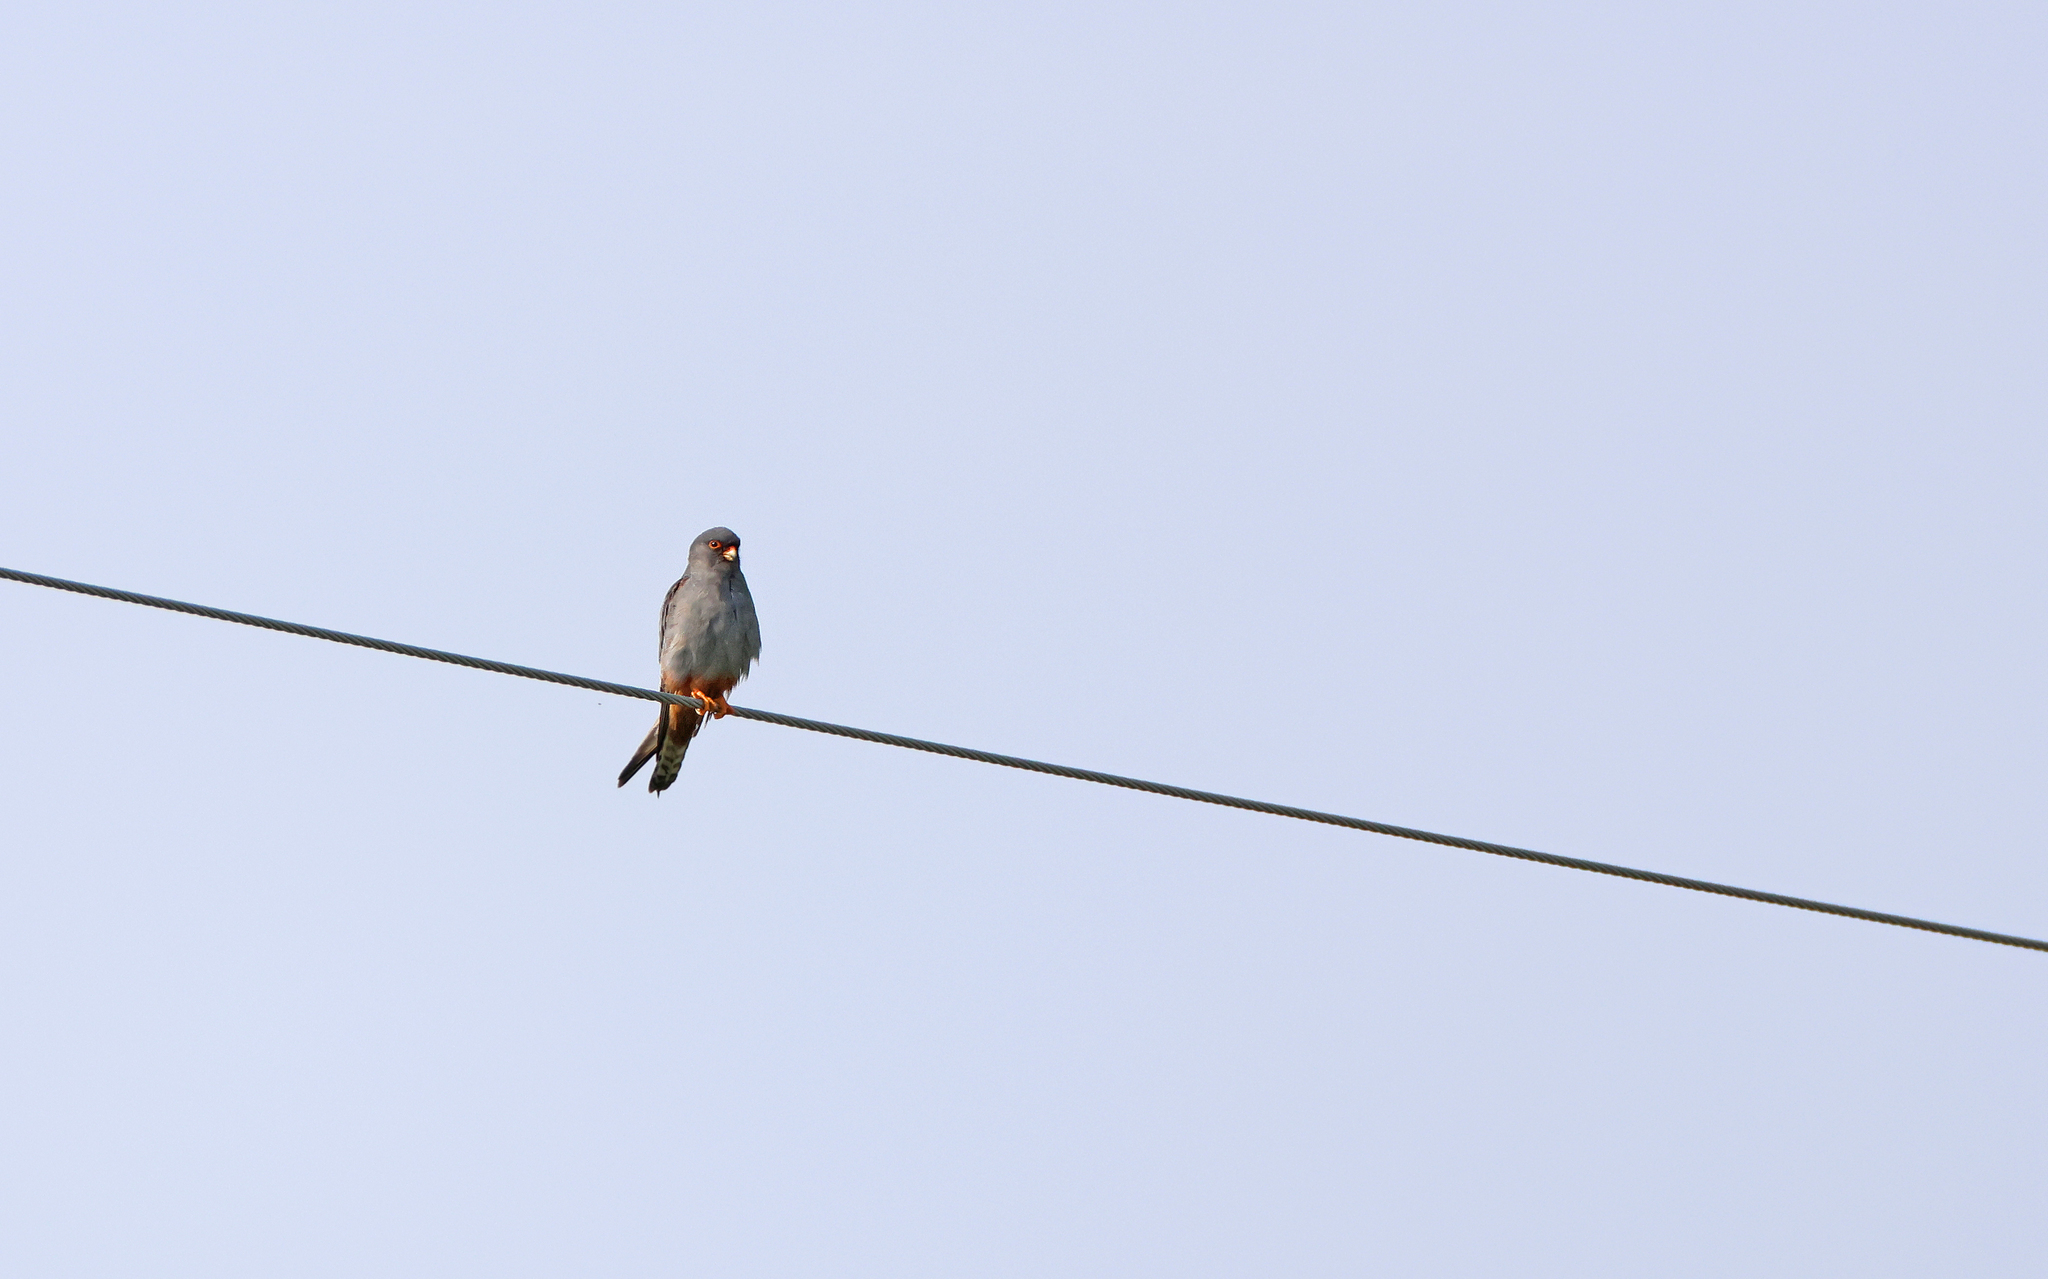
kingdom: Animalia
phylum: Chordata
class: Aves
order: Falconiformes
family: Falconidae
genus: Falco
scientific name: Falco vespertinus
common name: Red-footed falcon
